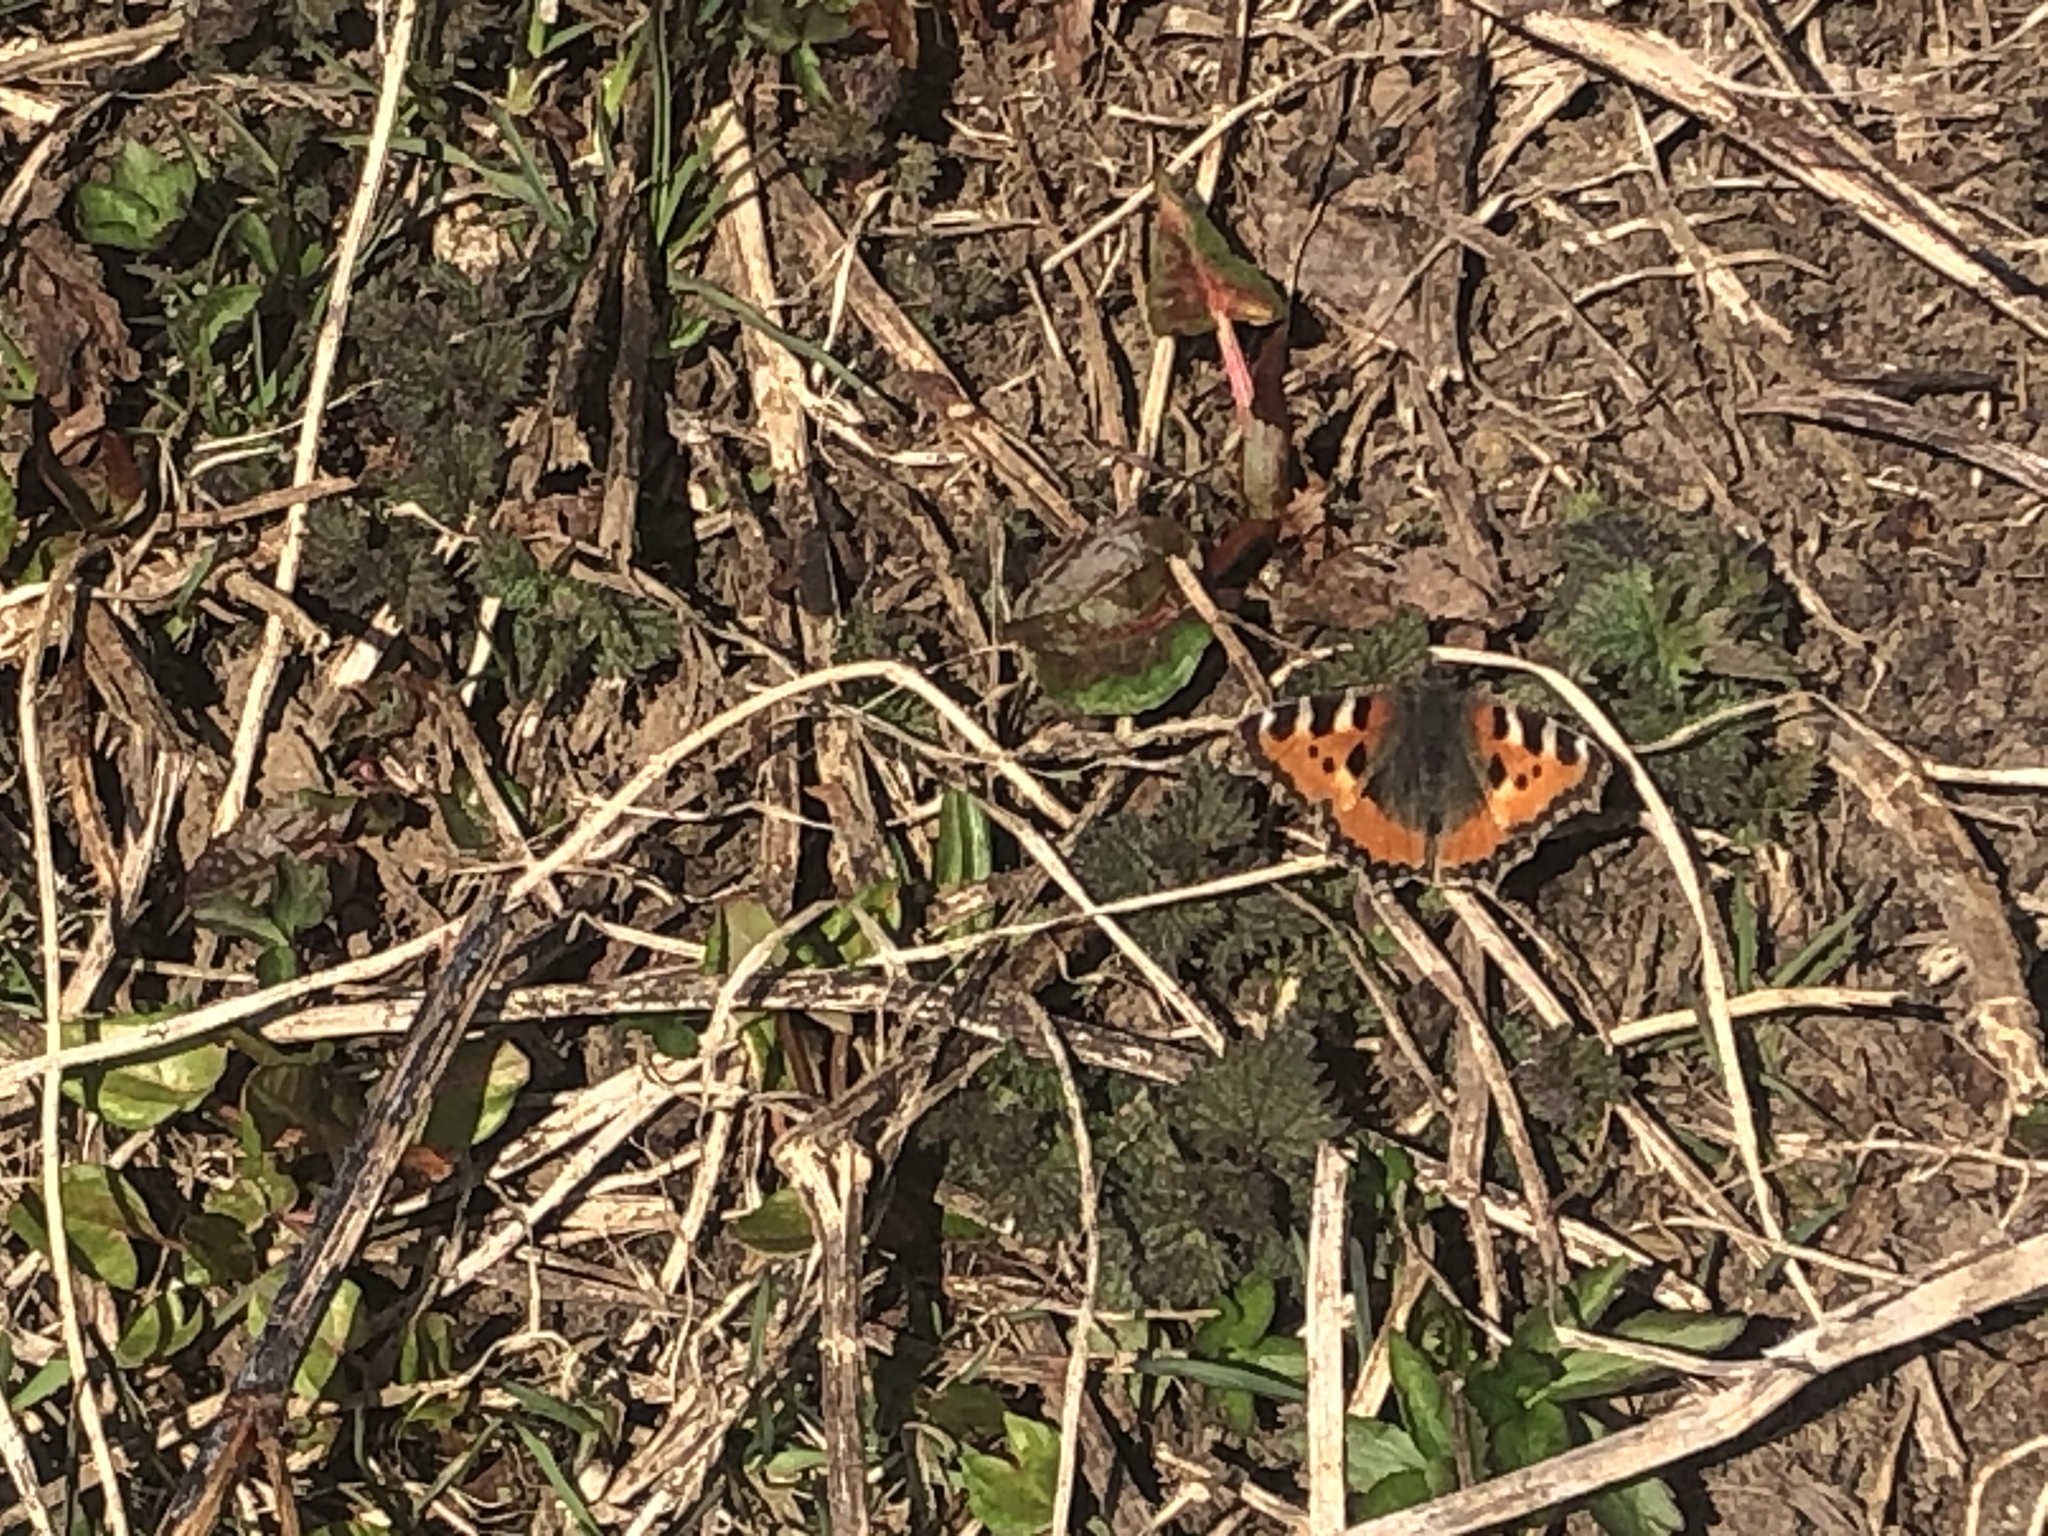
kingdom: Animalia
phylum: Arthropoda
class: Insecta
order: Lepidoptera
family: Nymphalidae
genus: Aglais
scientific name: Aglais urticae
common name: Small tortoiseshell
